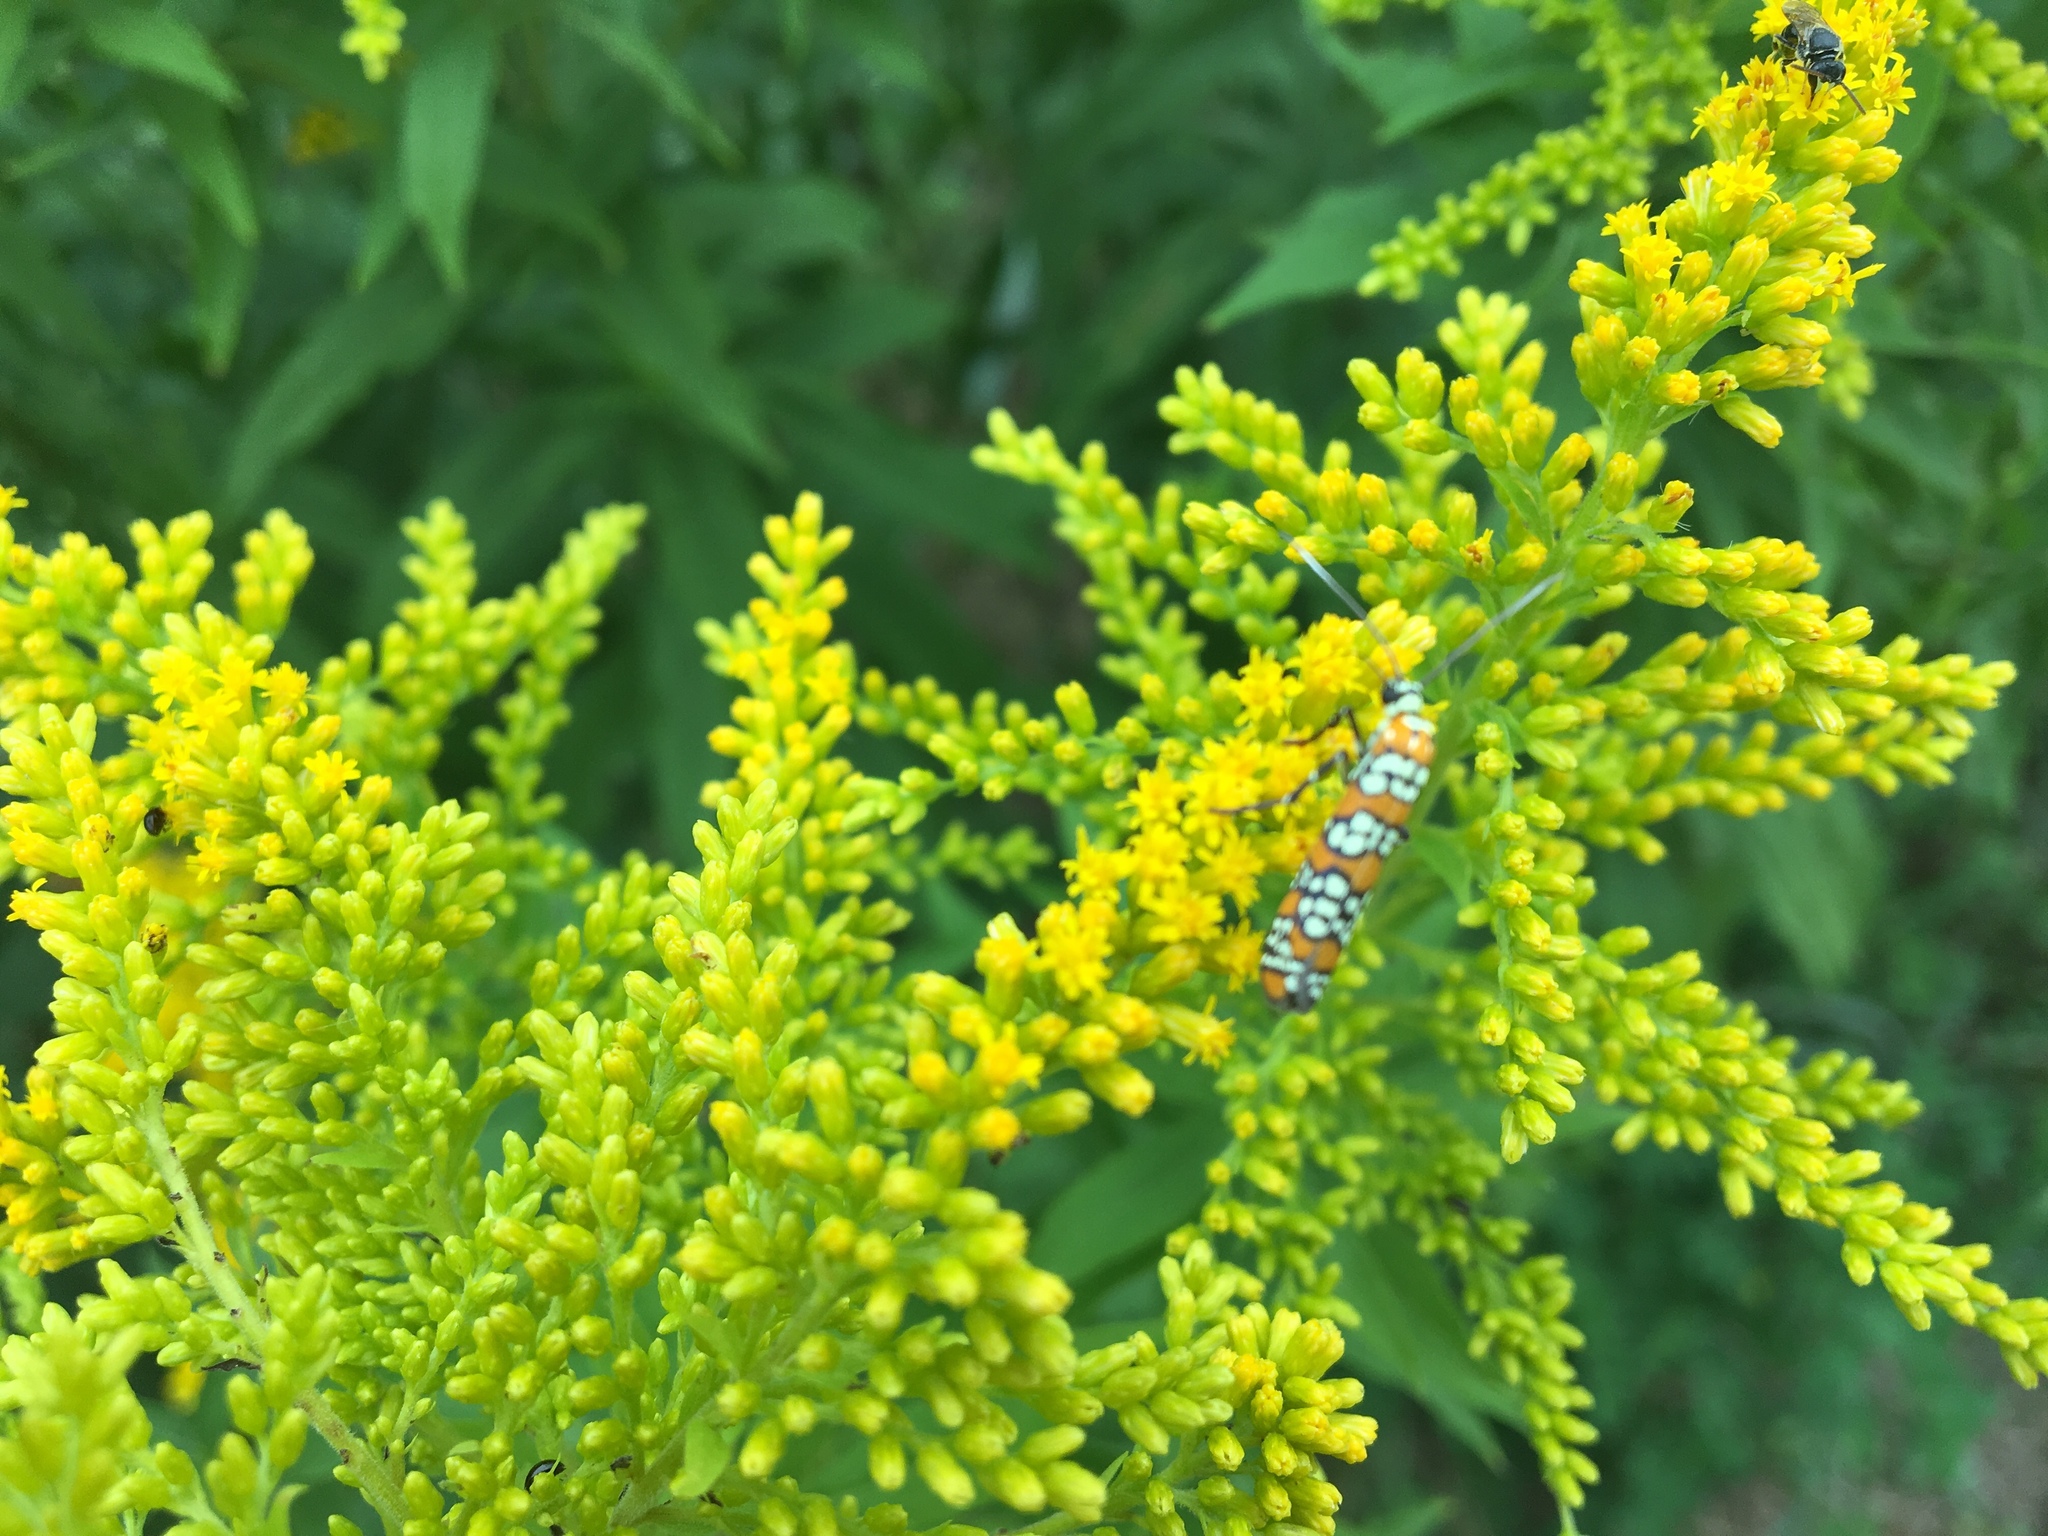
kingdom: Animalia
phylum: Arthropoda
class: Insecta
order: Lepidoptera
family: Attevidae
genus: Atteva
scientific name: Atteva punctella
